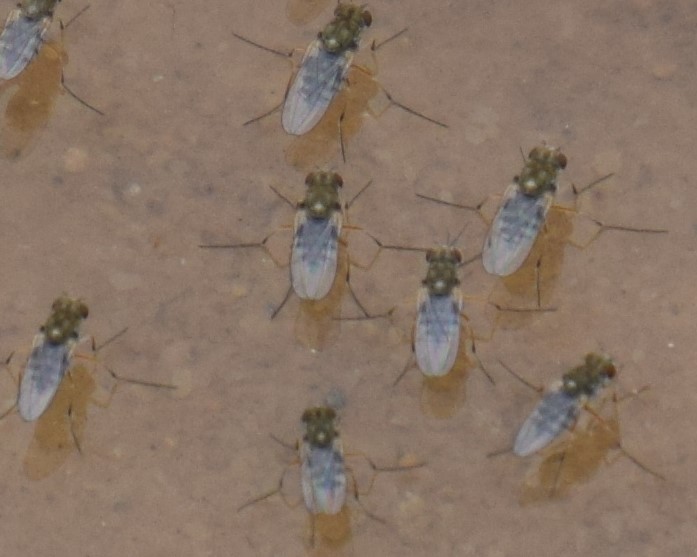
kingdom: Animalia
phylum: Arthropoda
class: Insecta
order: Diptera
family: Ephydridae
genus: Brachydeutera
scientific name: Brachydeutera sydneyensis
